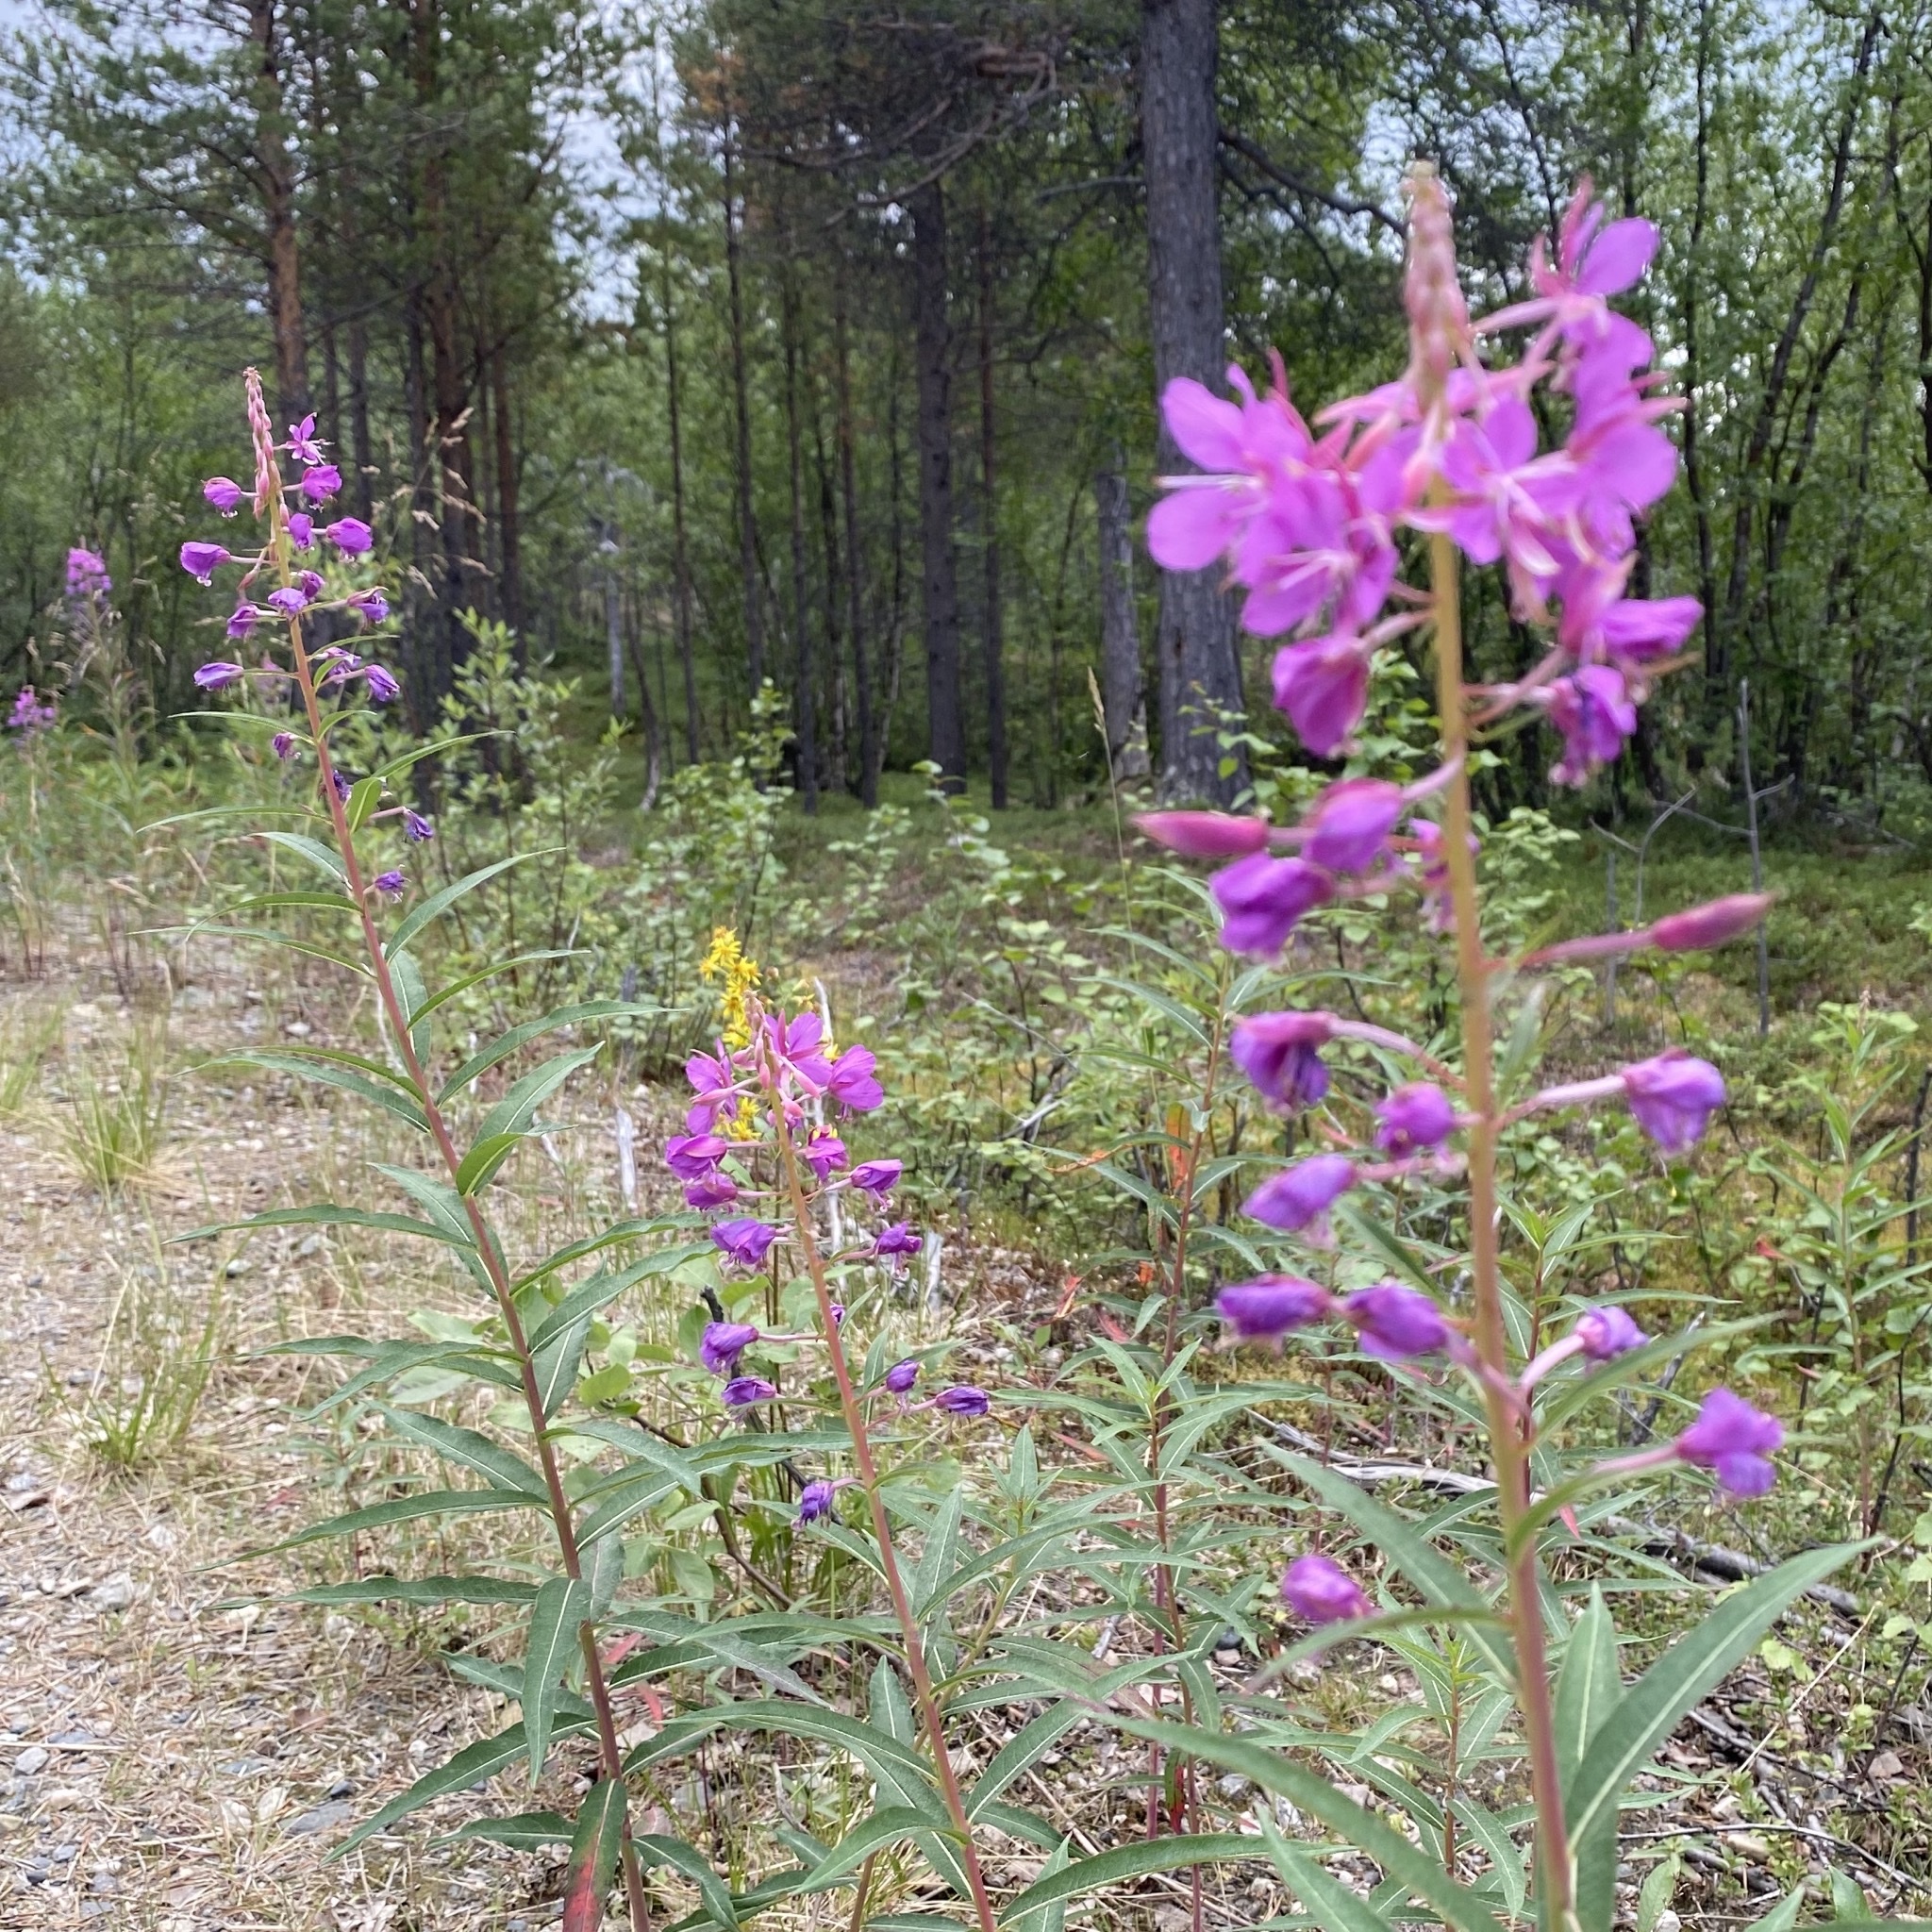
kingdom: Plantae
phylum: Tracheophyta
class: Magnoliopsida
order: Myrtales
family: Onagraceae
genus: Chamaenerion
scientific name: Chamaenerion angustifolium
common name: Fireweed
